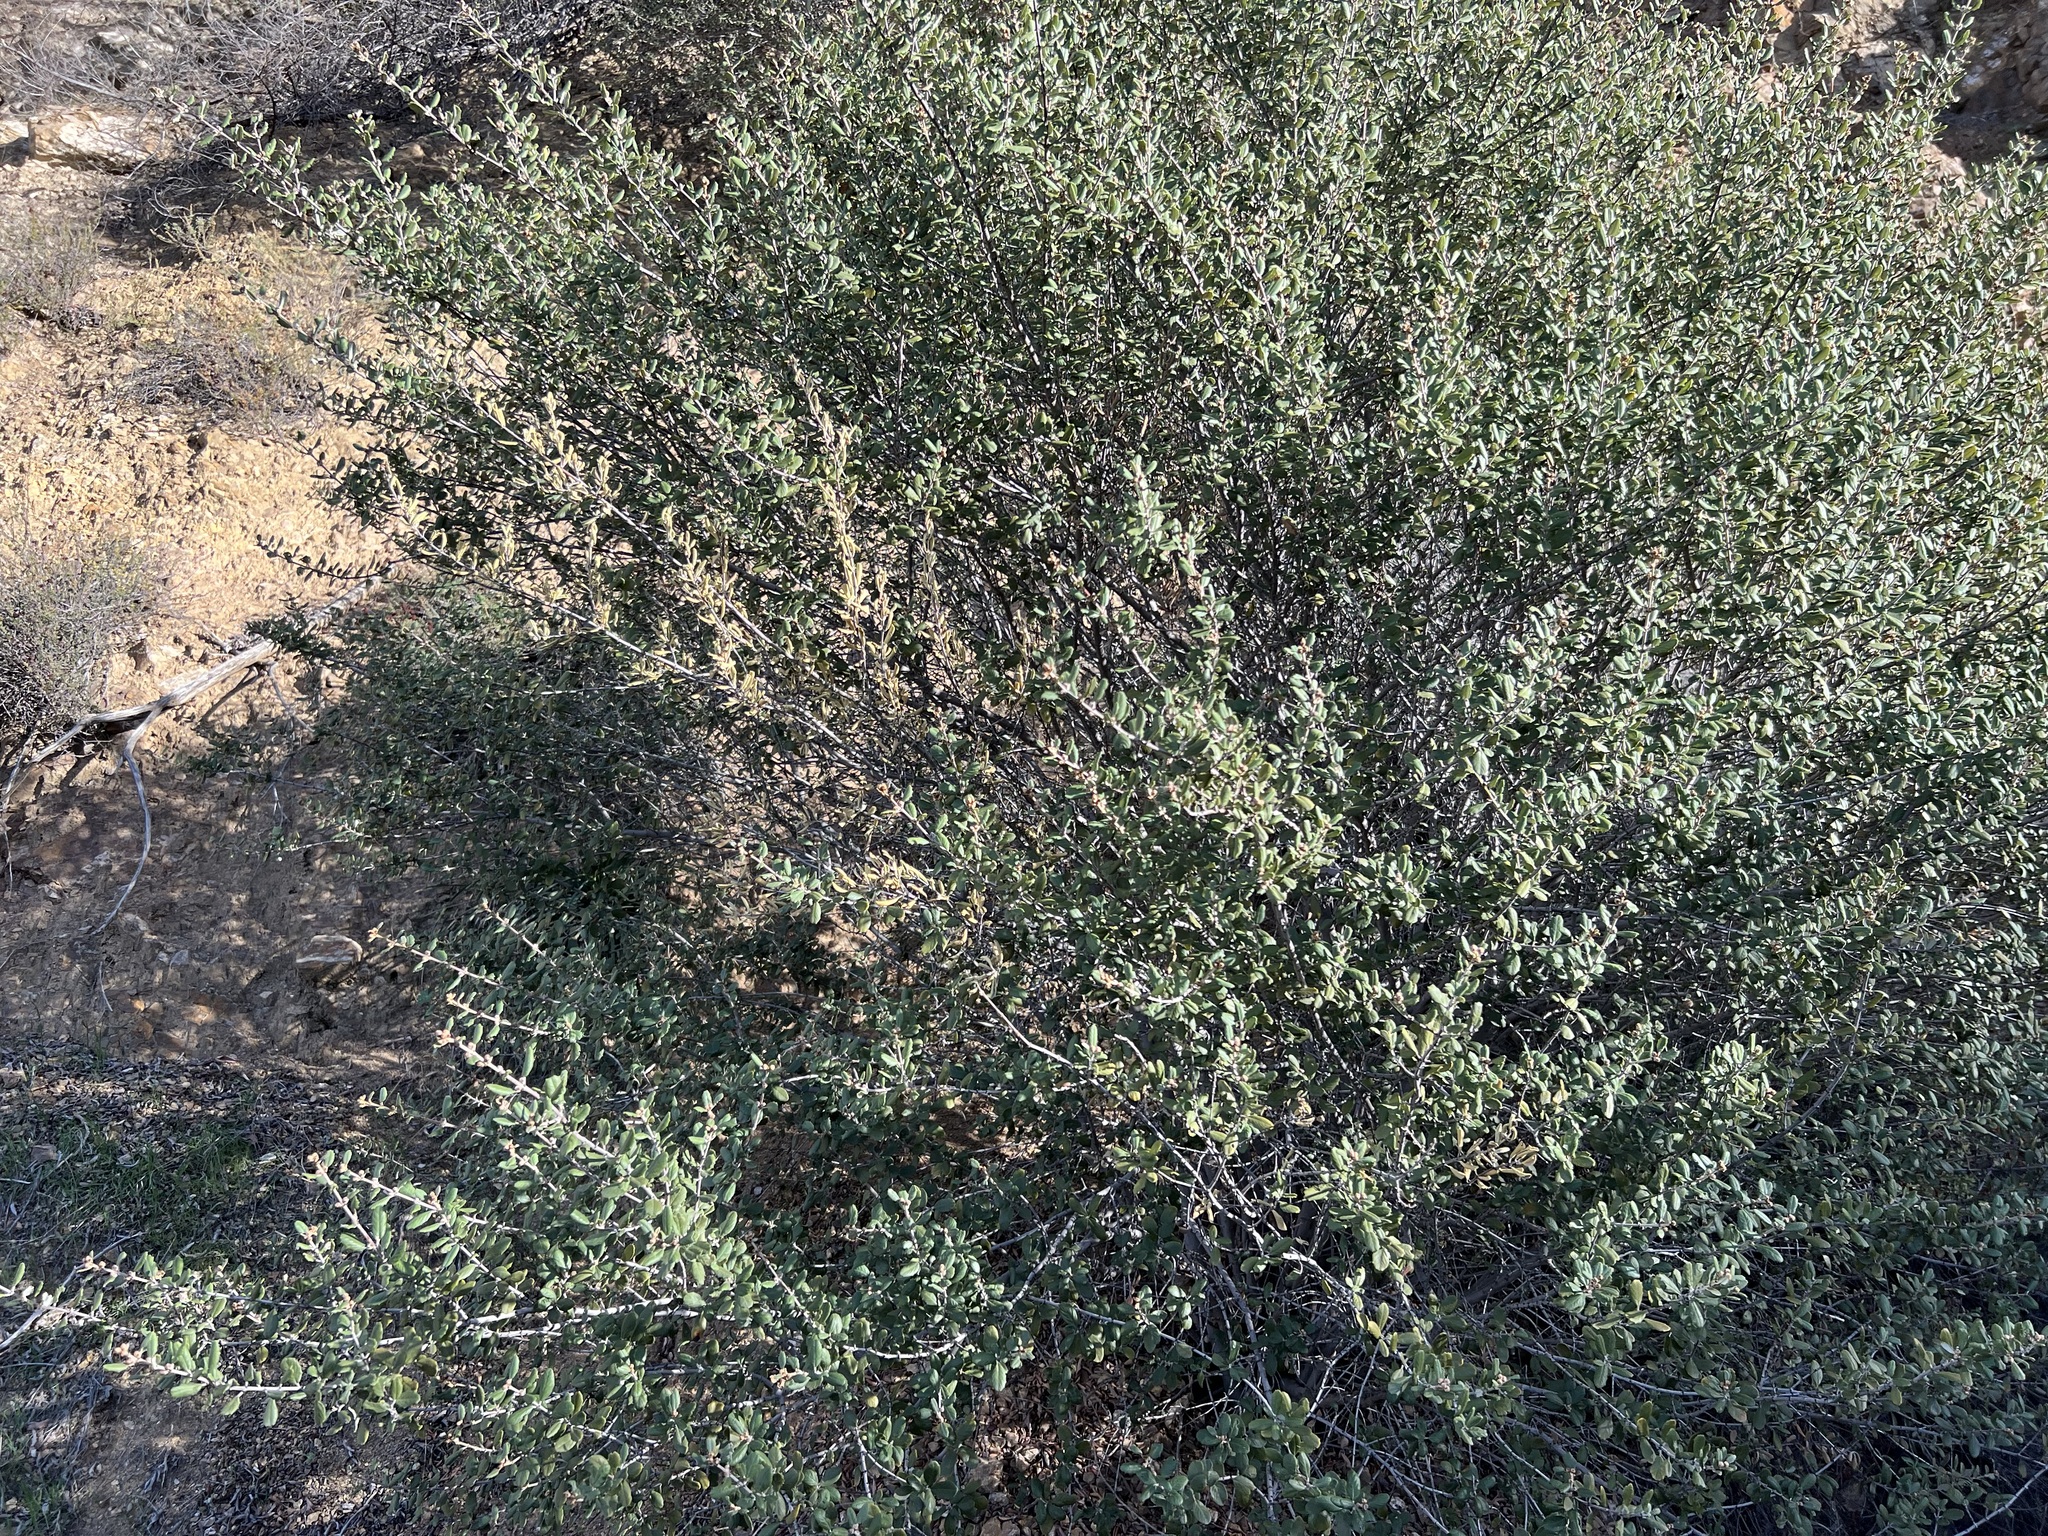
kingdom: Plantae
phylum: Tracheophyta
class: Magnoliopsida
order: Rosales
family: Rhamnaceae
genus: Ceanothus
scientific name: Ceanothus crassifolius
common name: Hoaryleaf ceanothus
